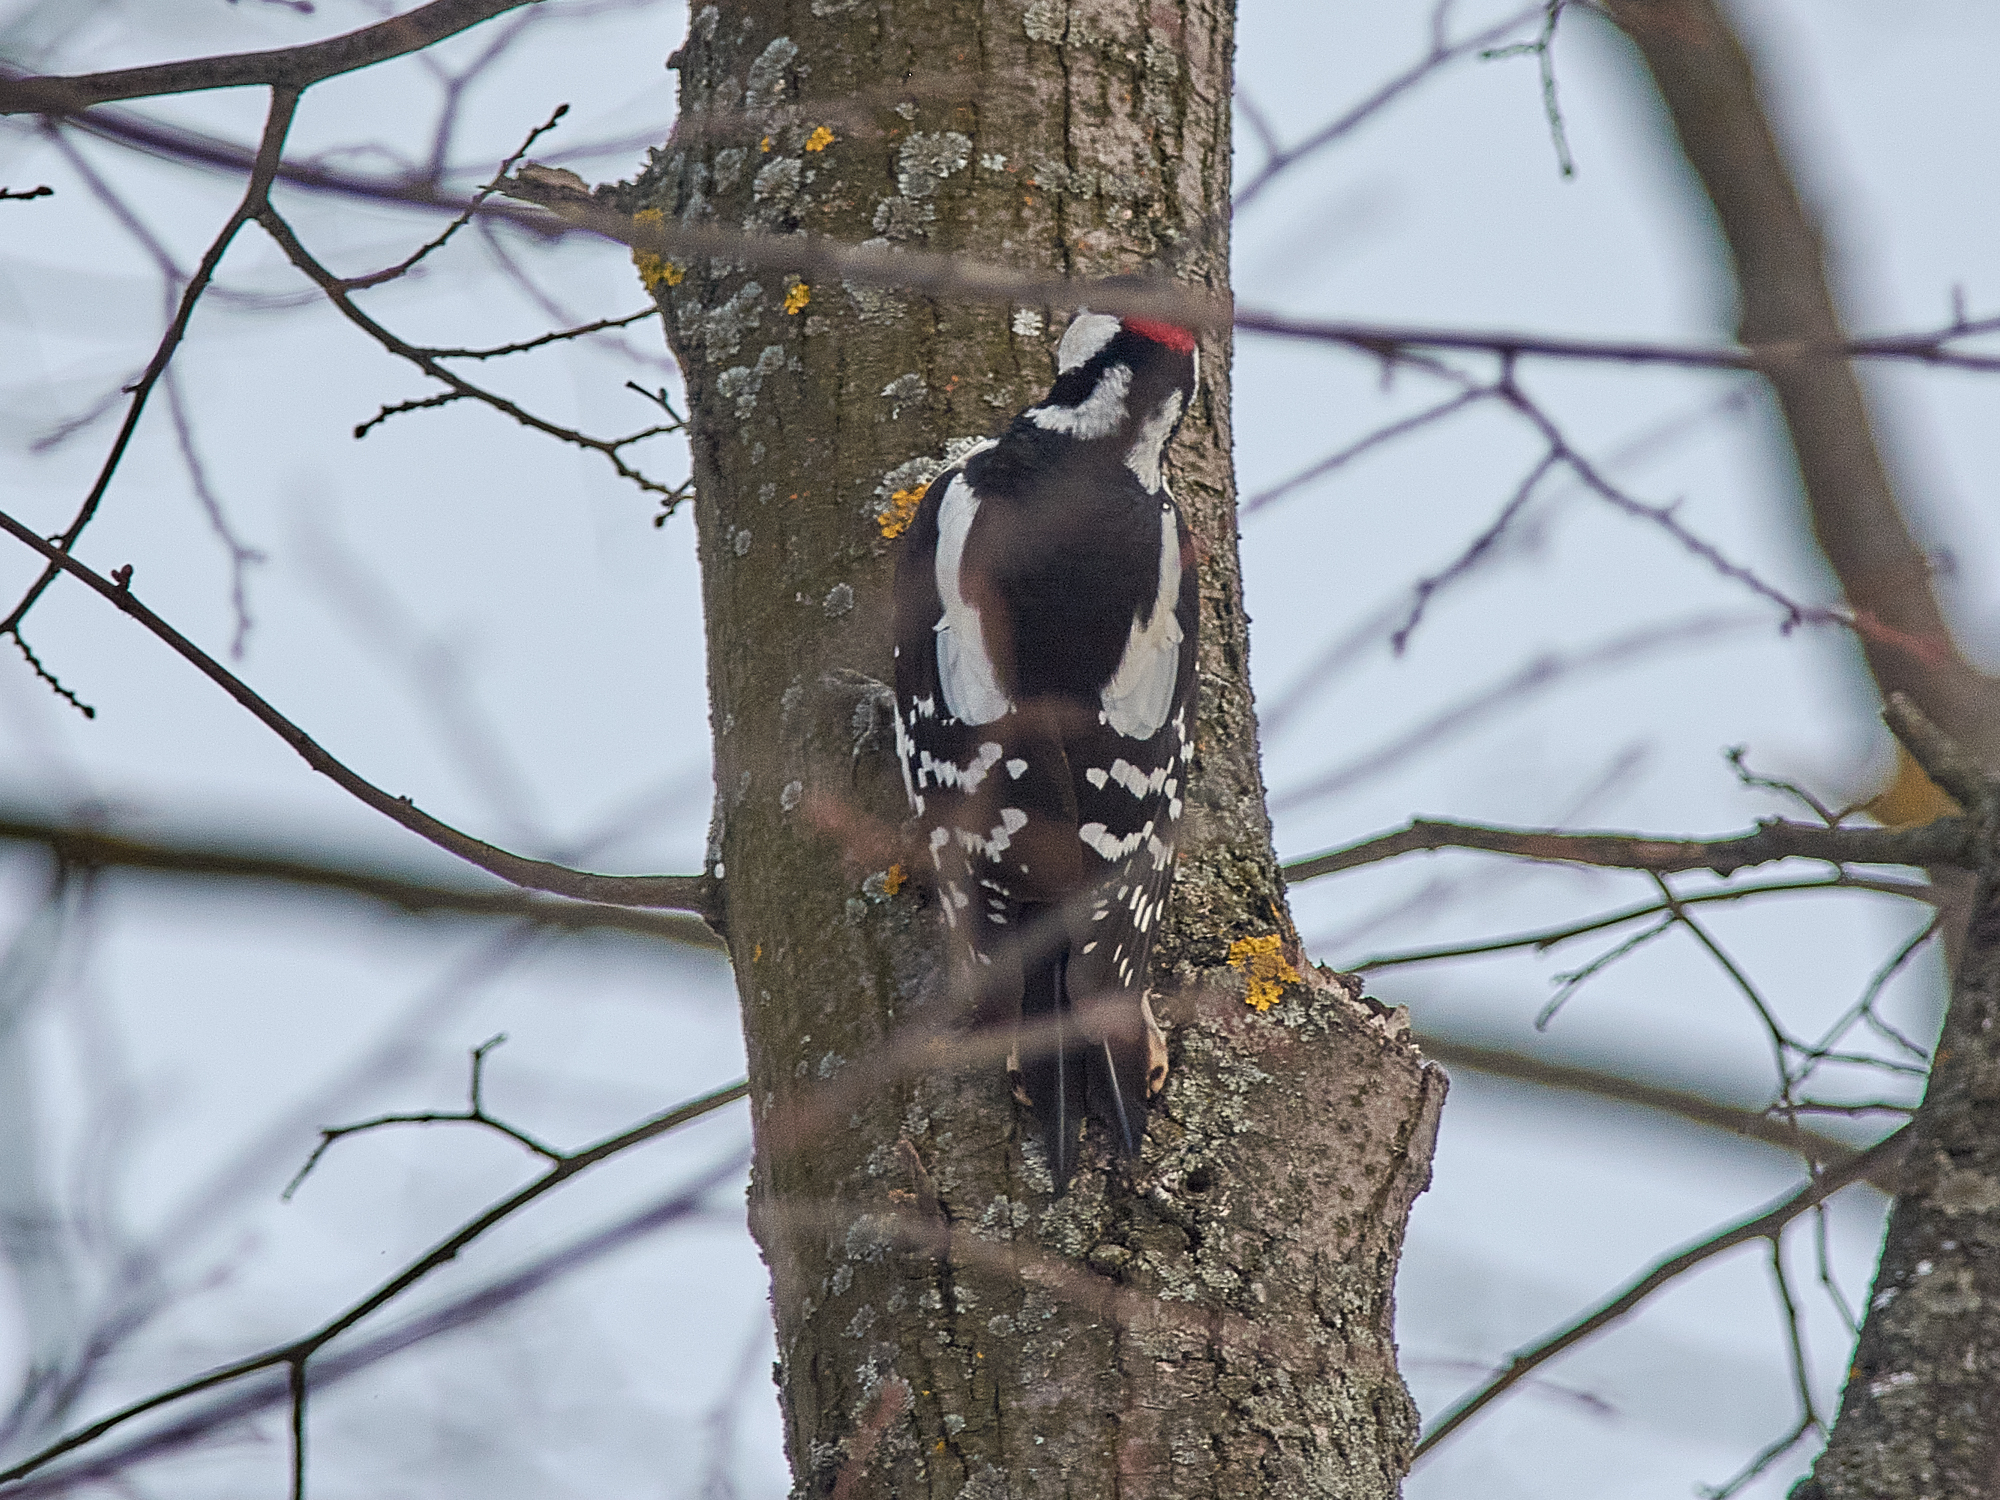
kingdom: Animalia
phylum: Chordata
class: Aves
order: Piciformes
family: Picidae
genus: Dendrocopos
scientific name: Dendrocopos major
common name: Great spotted woodpecker
